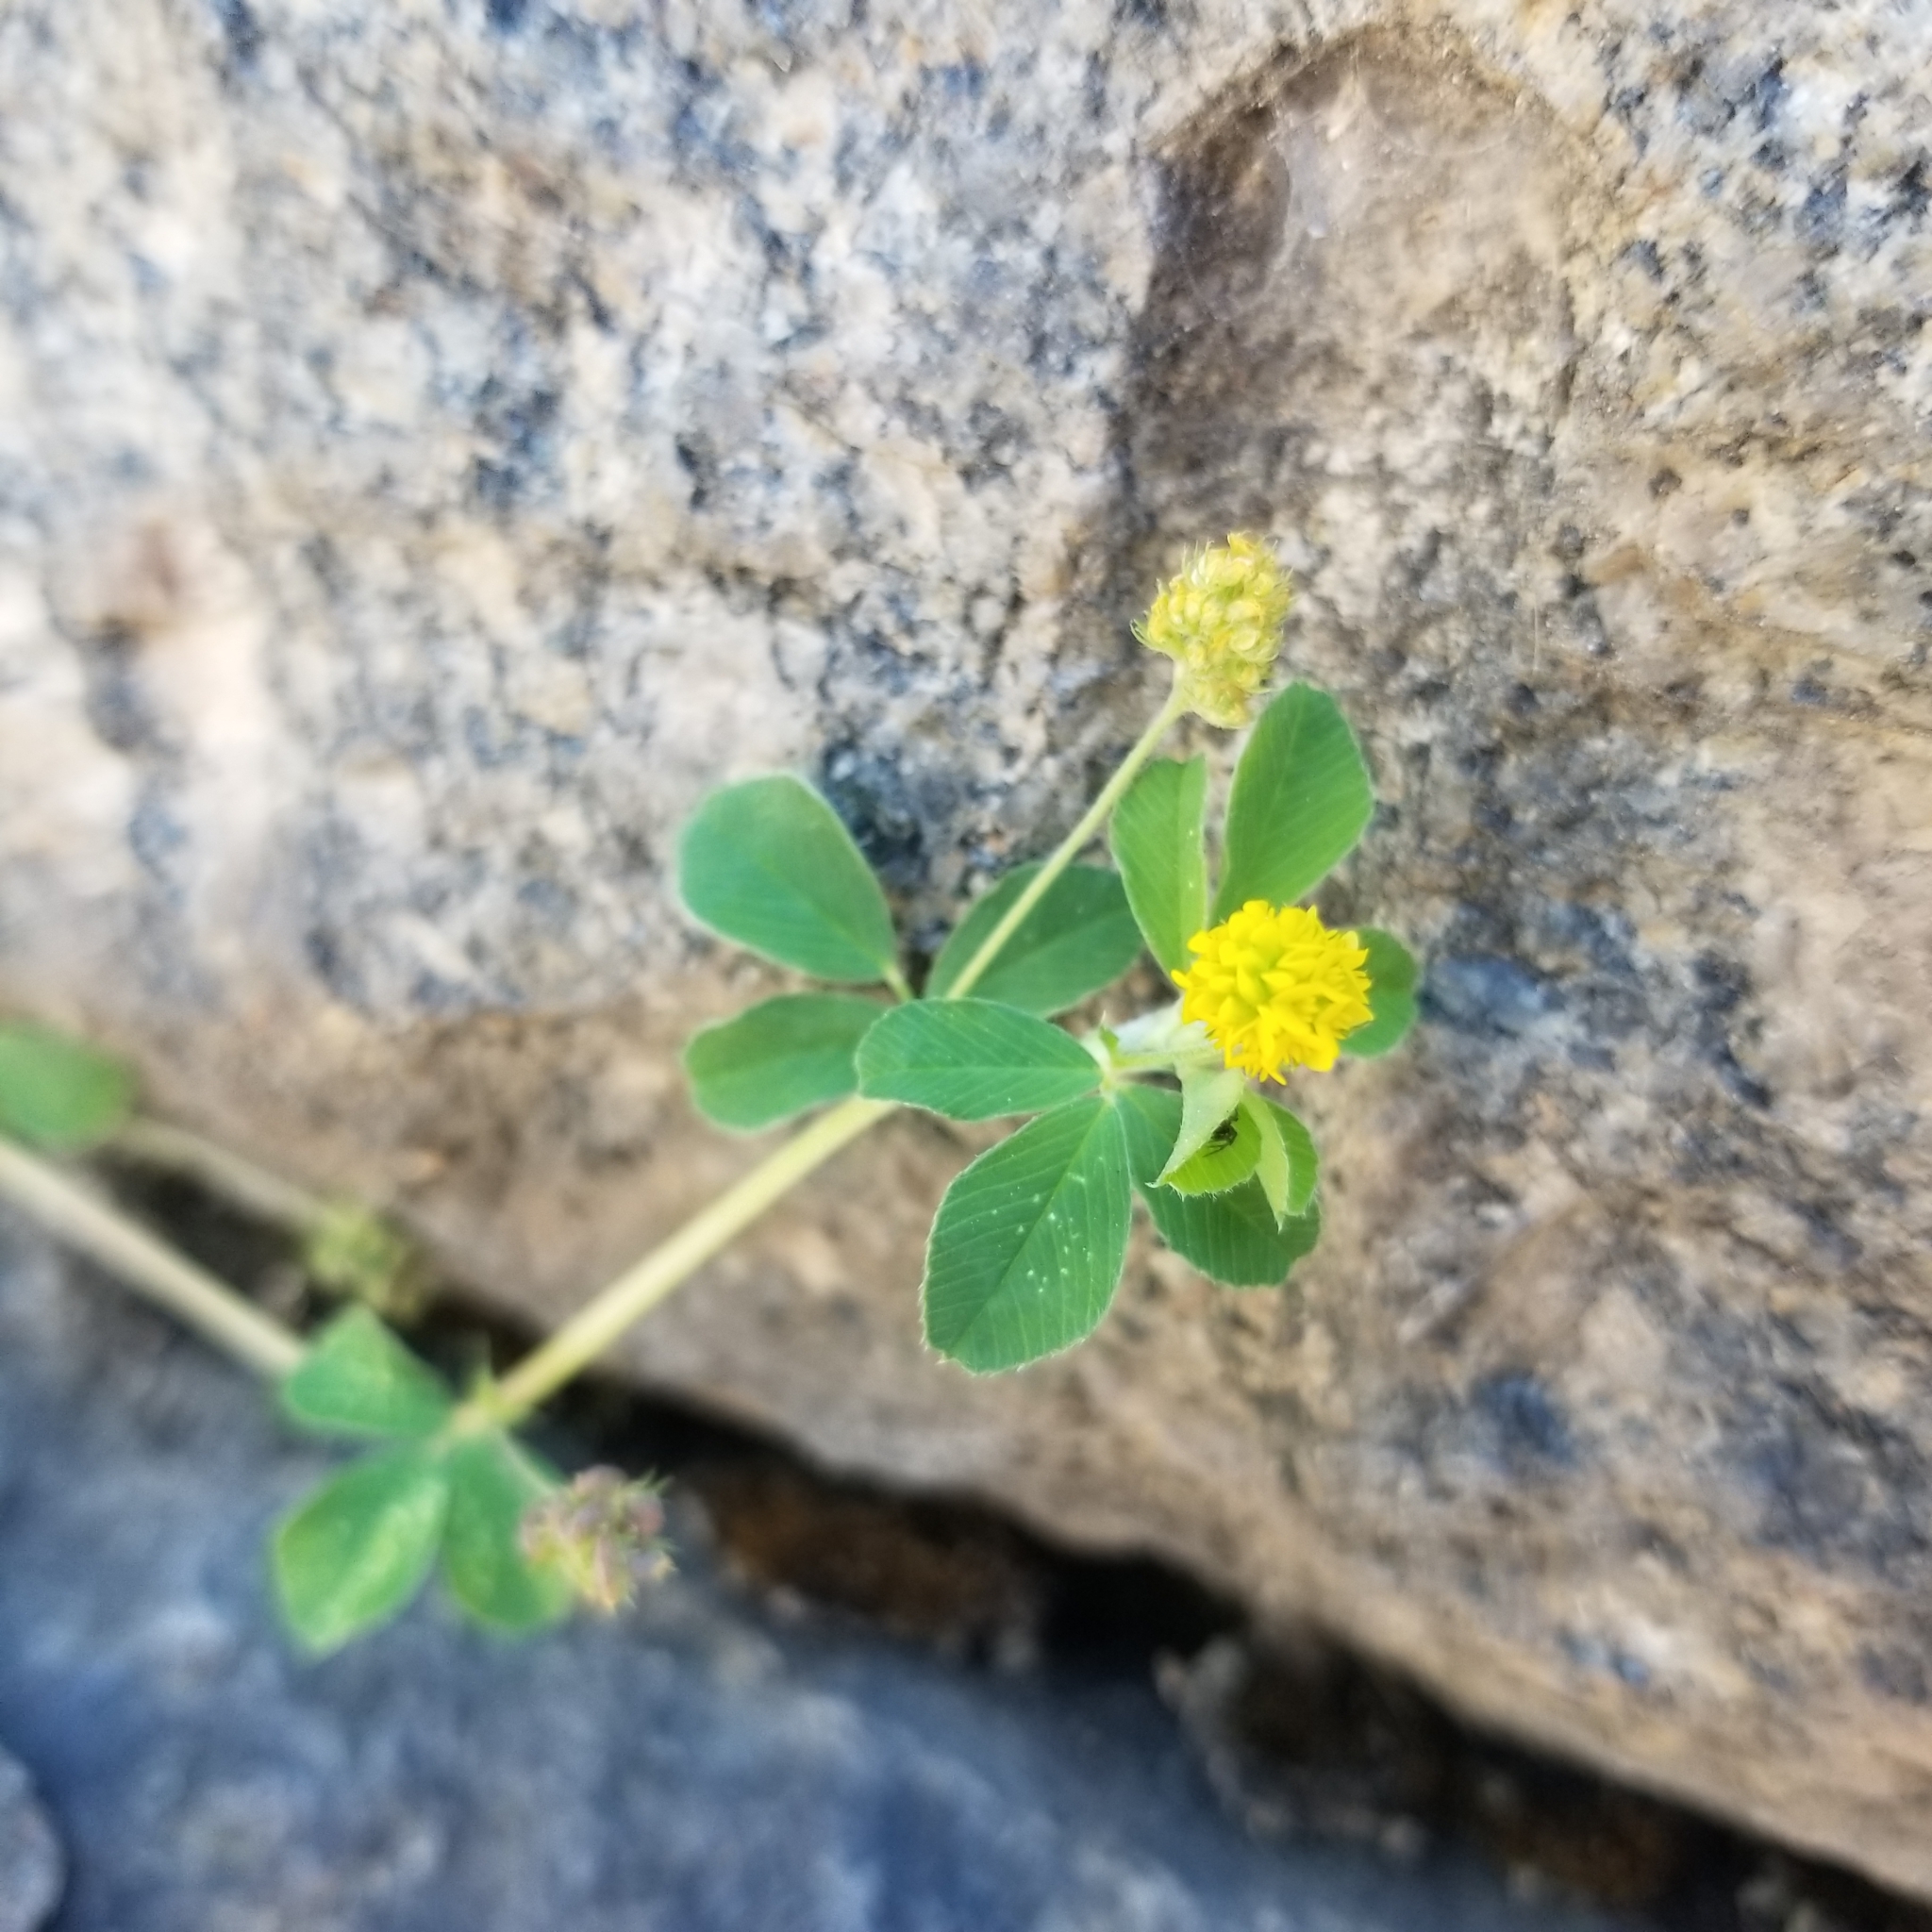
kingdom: Plantae
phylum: Tracheophyta
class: Magnoliopsida
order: Fabales
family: Fabaceae
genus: Medicago
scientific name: Medicago lupulina
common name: Black medick
